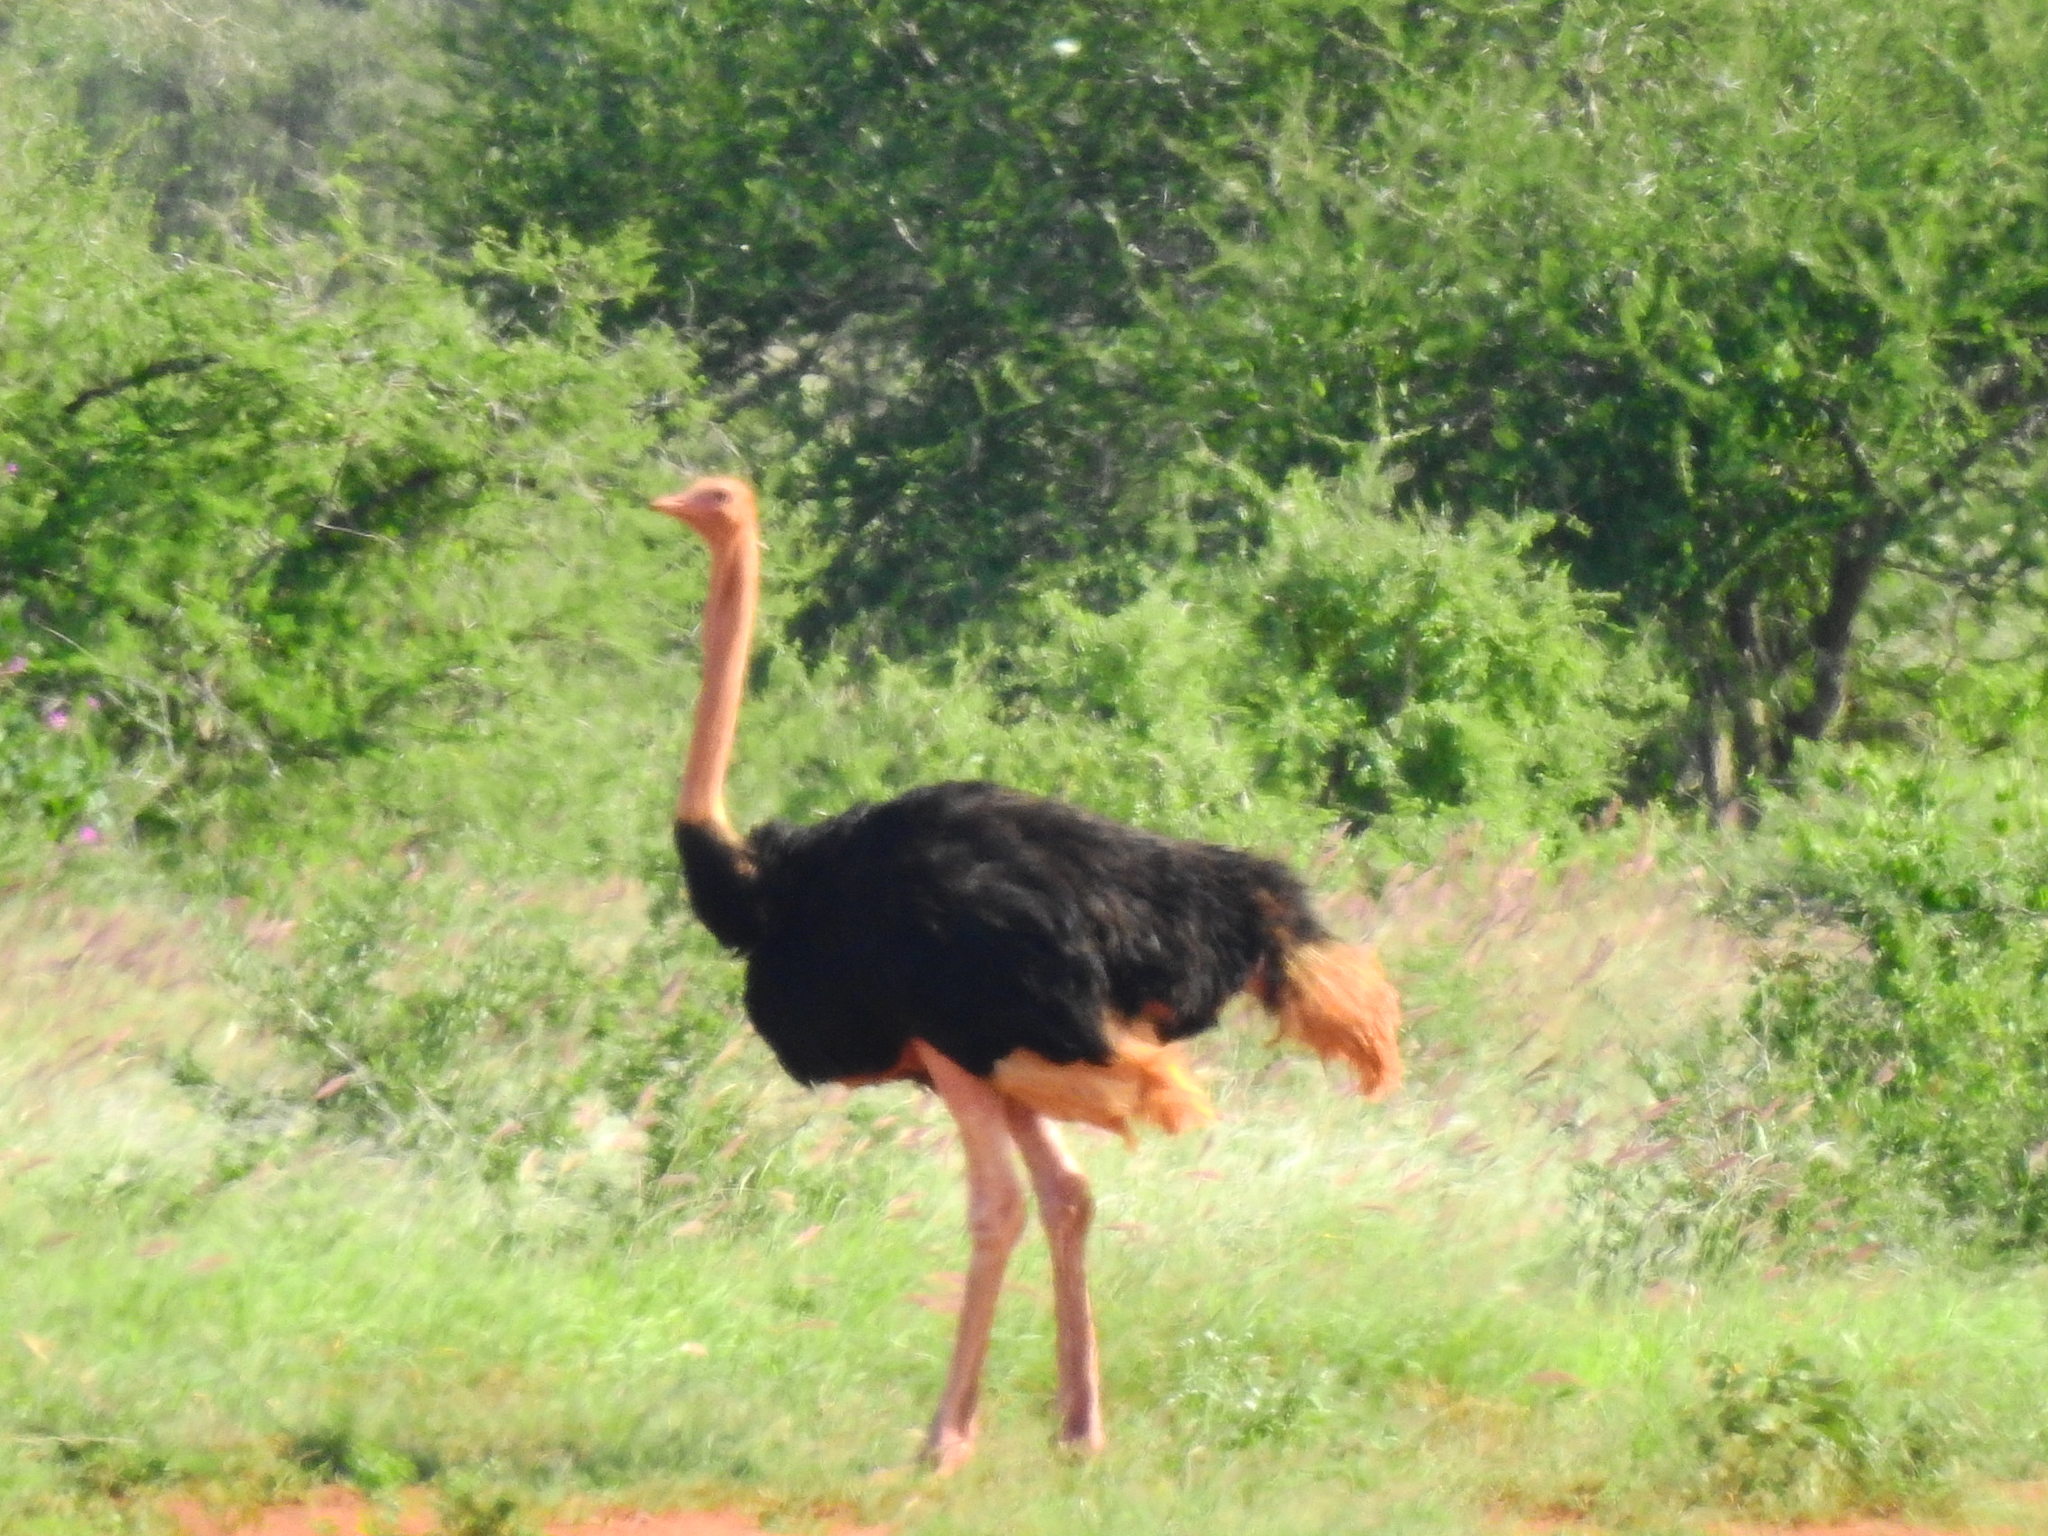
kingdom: Animalia
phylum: Chordata
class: Aves
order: Struthioniformes
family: Struthionidae
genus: Struthio
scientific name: Struthio camelus
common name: Common ostrich
